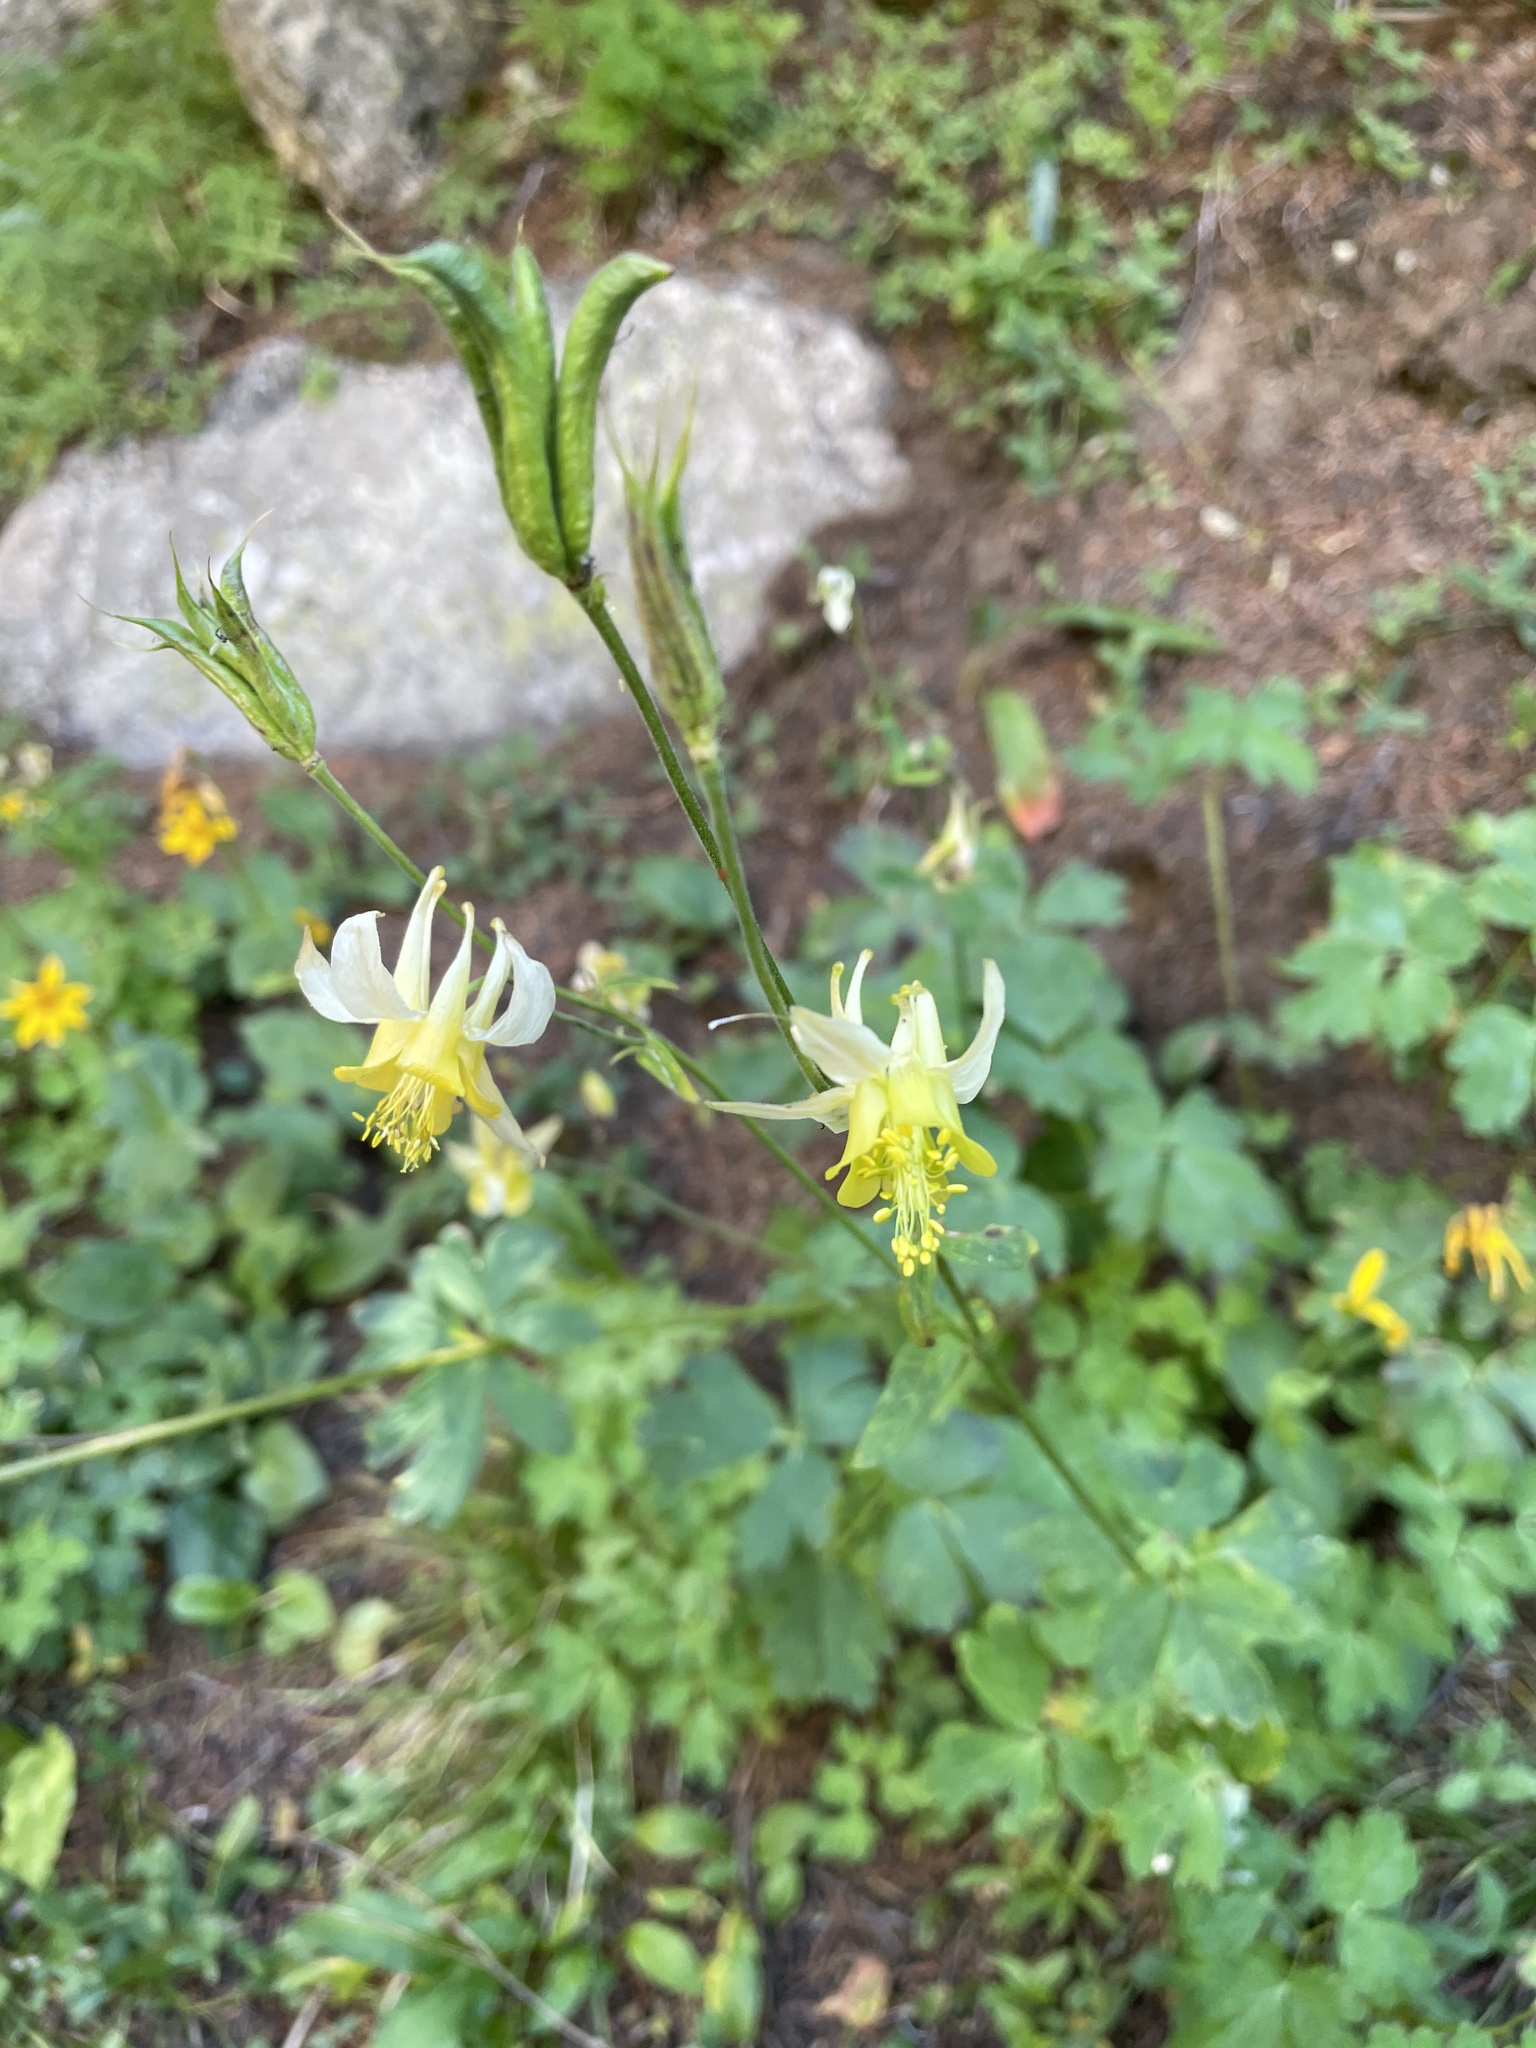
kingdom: Plantae
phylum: Tracheophyta
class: Magnoliopsida
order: Ranunculales
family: Ranunculaceae
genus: Aquilegia
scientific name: Aquilegia flavescens
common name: Yellow columbine
